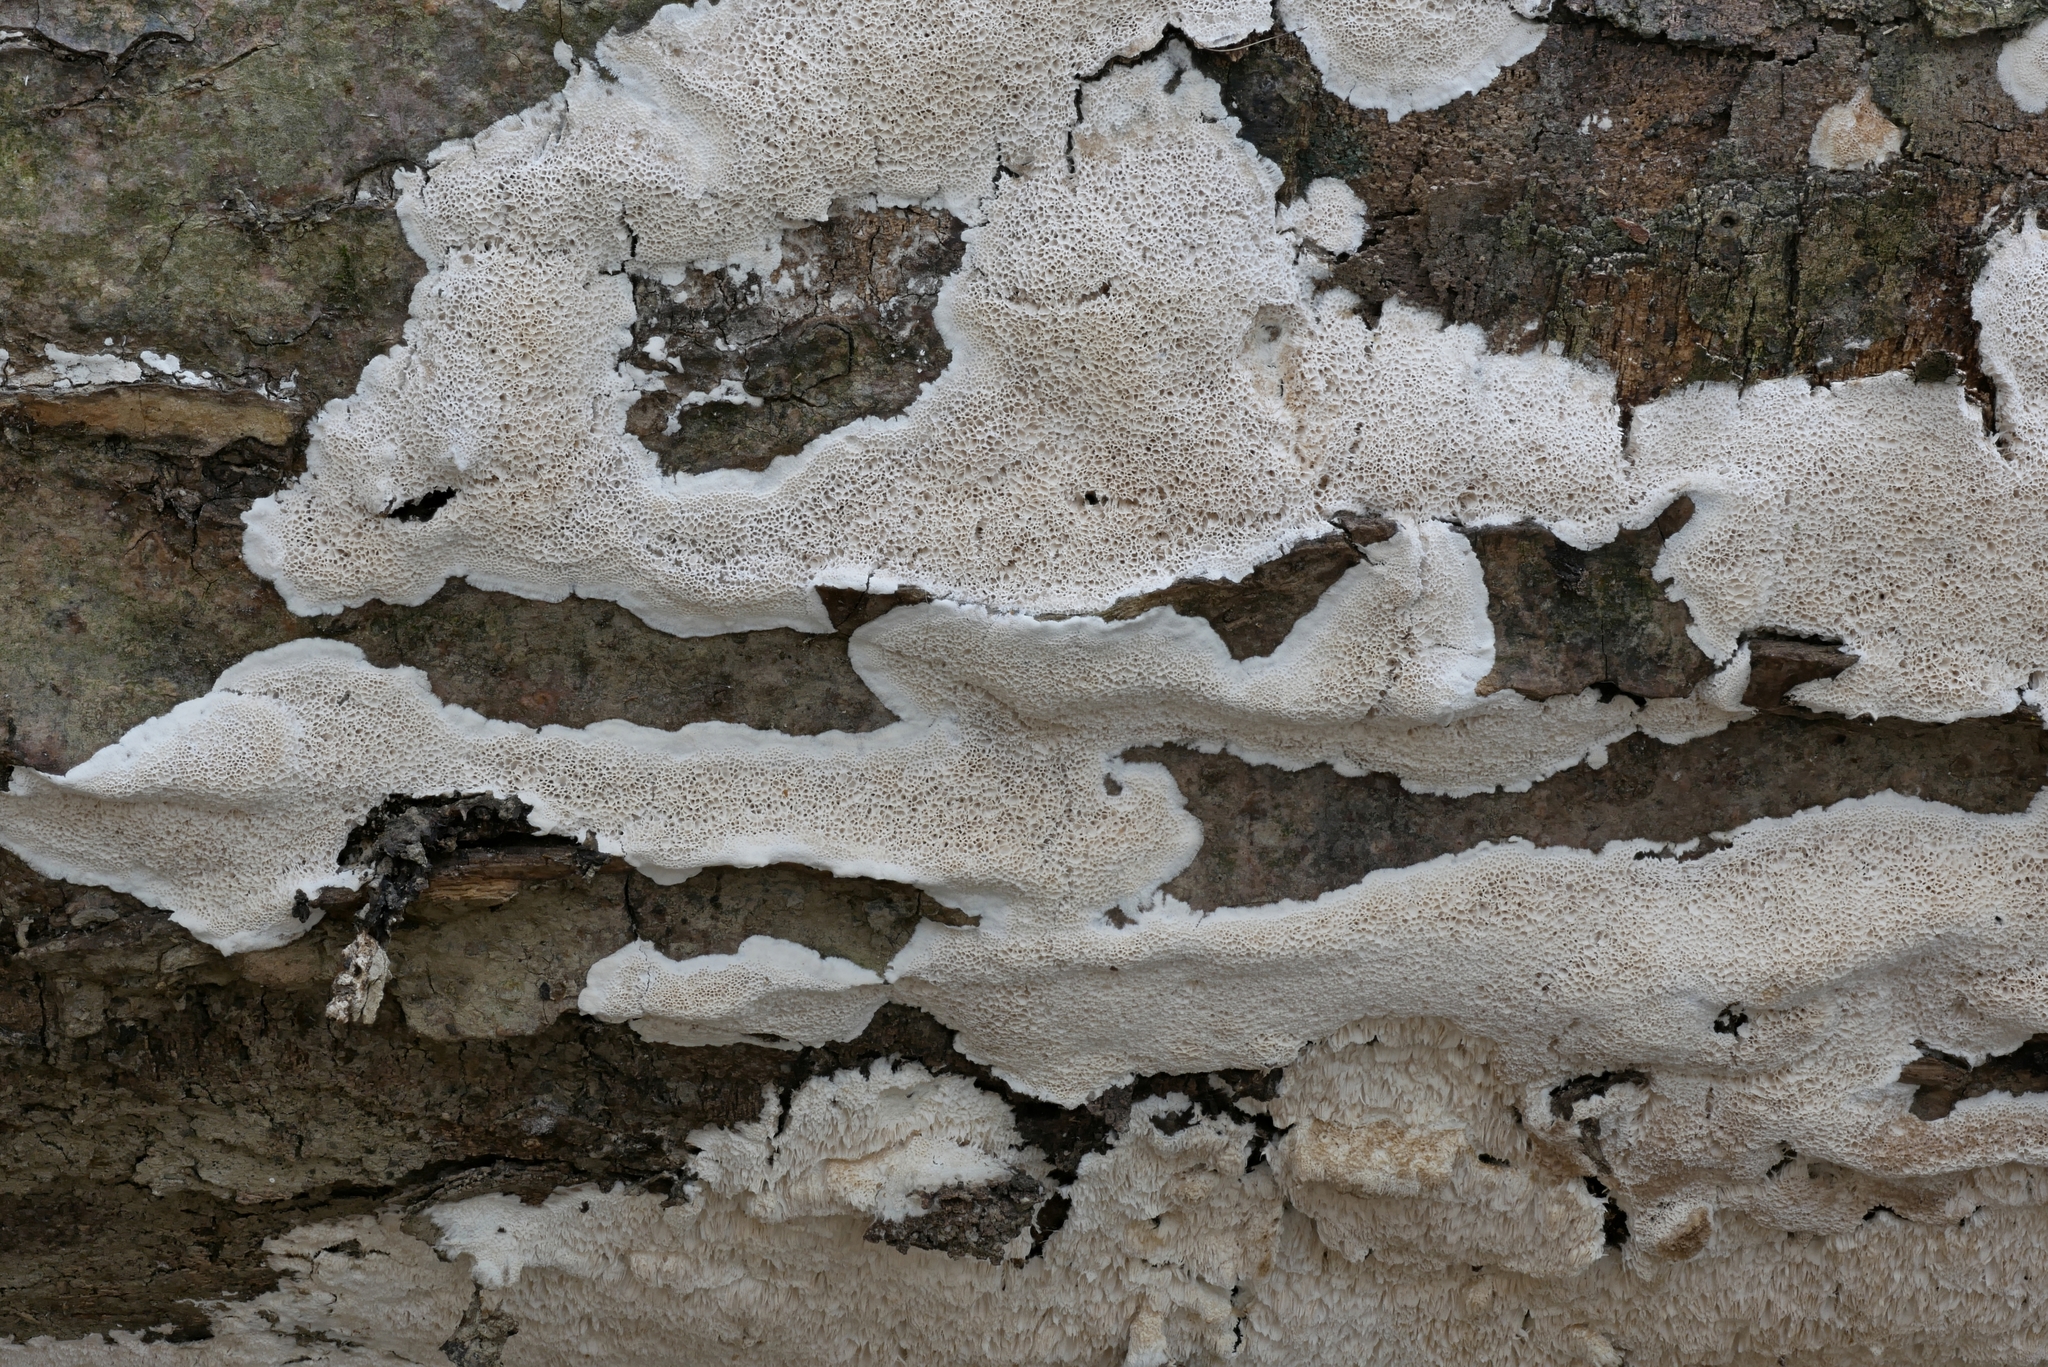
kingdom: Fungi
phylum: Basidiomycota
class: Agaricomycetes
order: Polyporales
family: Irpicaceae
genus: Irpex
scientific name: Irpex latemarginatus
